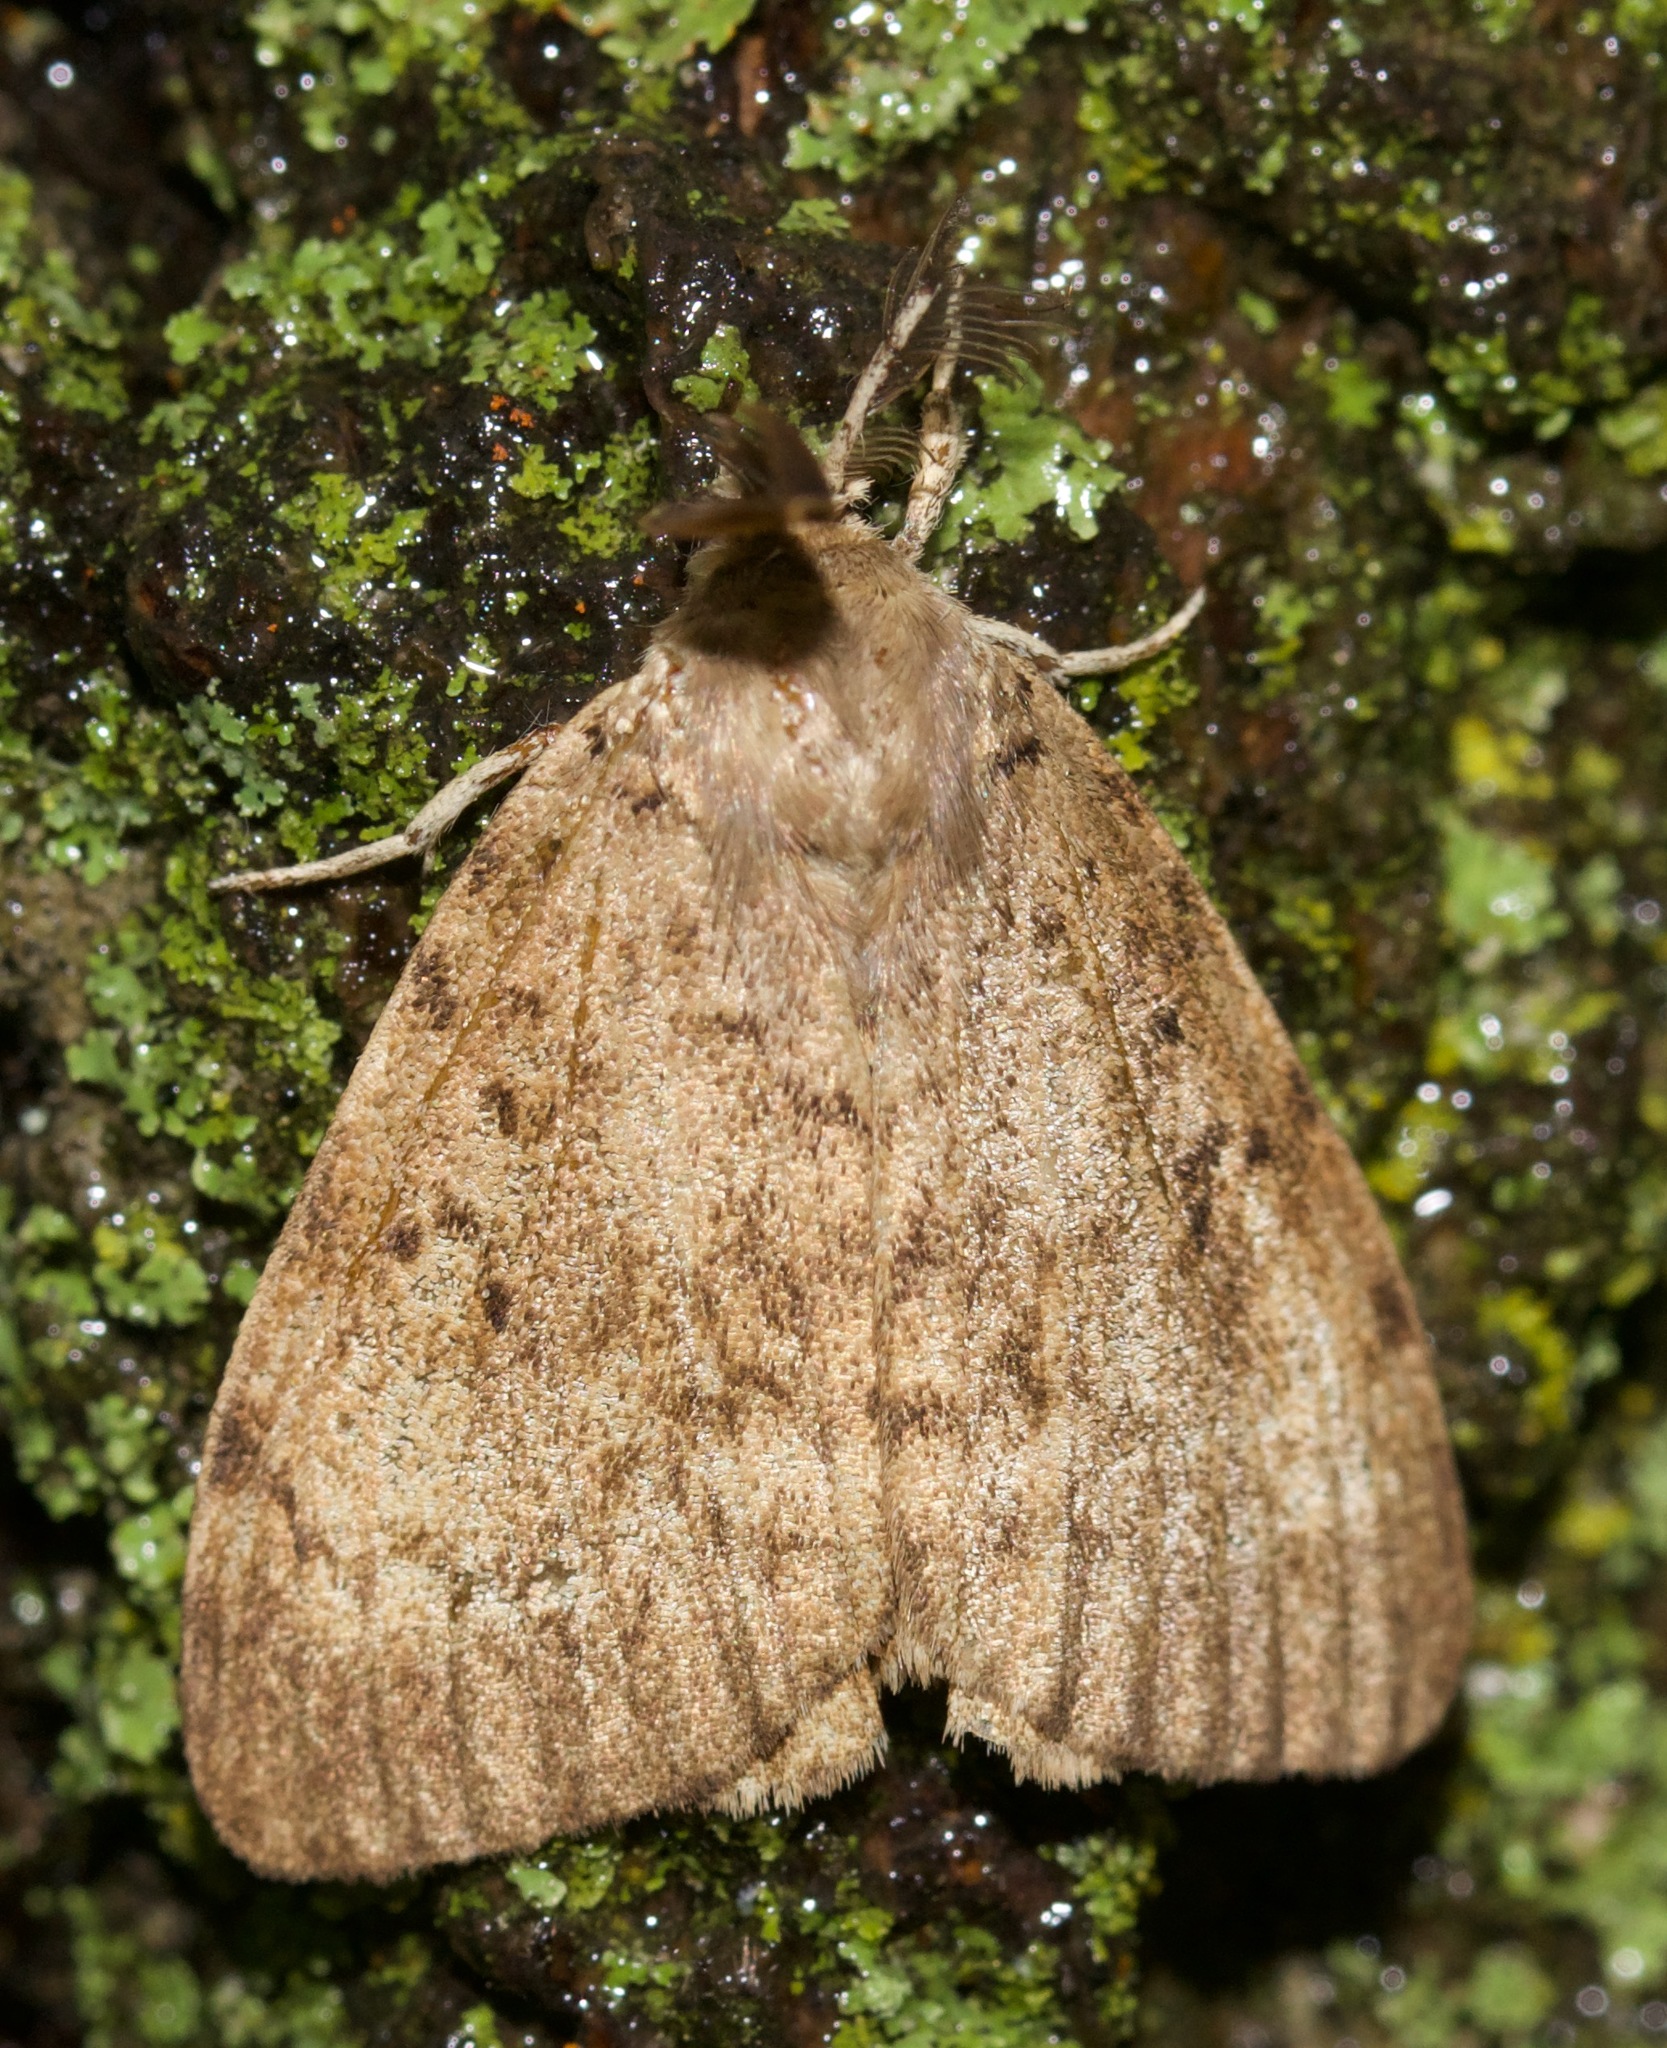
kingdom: Animalia
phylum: Arthropoda
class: Insecta
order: Lepidoptera
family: Erebidae
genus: Lymantria
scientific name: Lymantria dispar
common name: Gypsy moth
